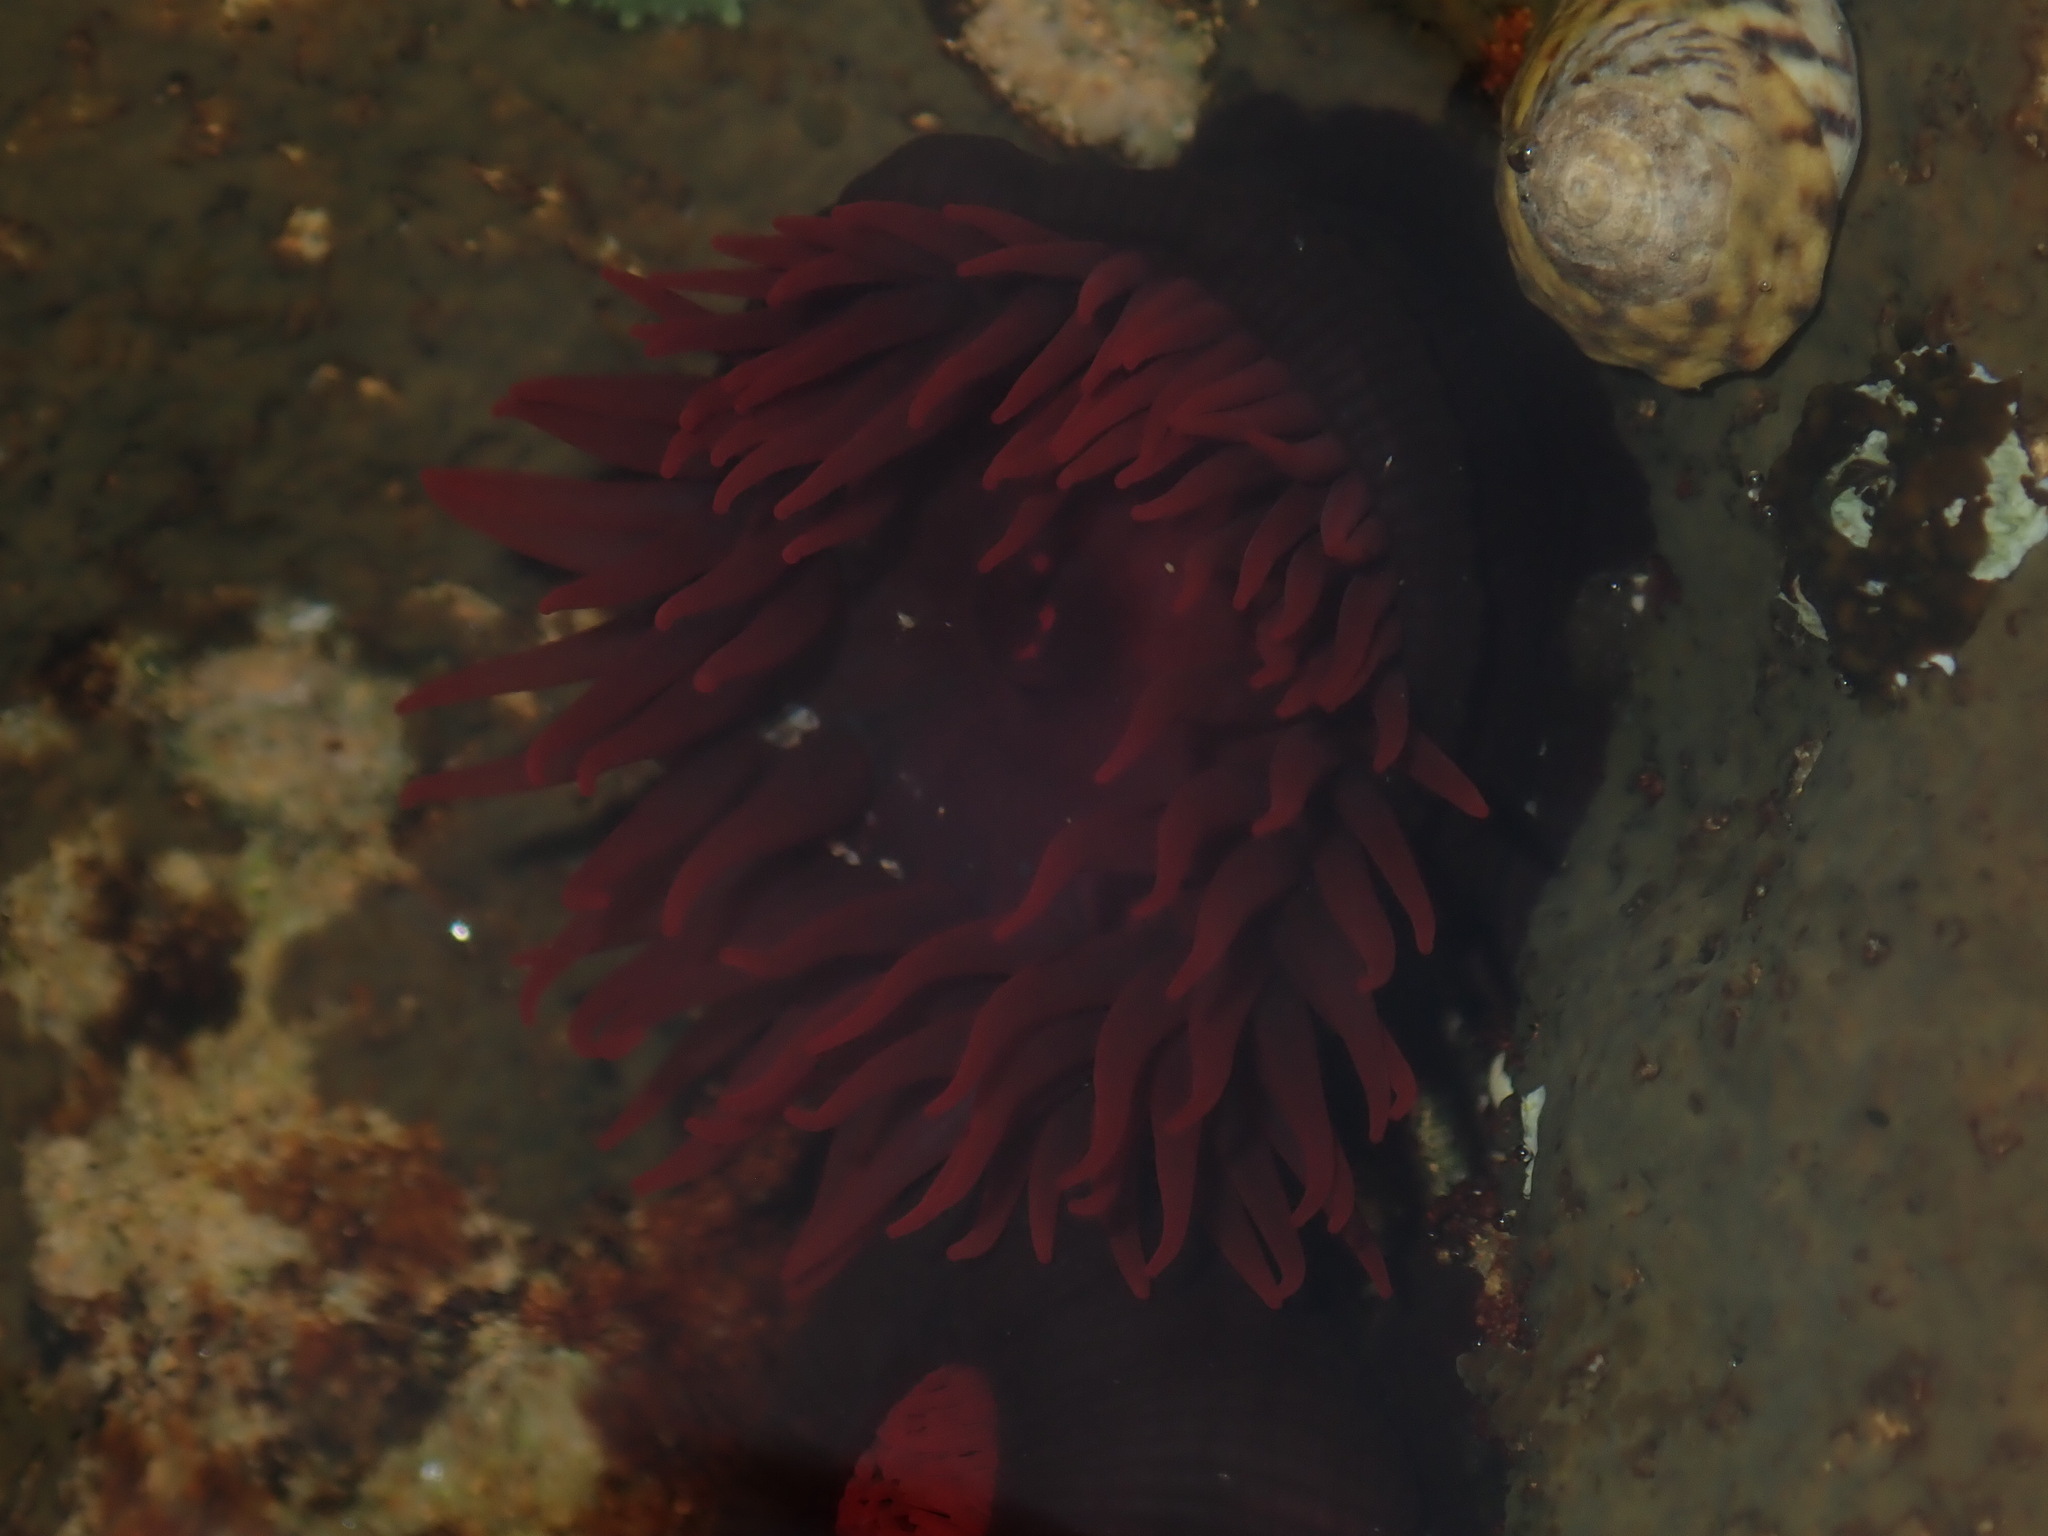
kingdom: Animalia
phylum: Cnidaria
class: Anthozoa
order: Actiniaria
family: Actiniidae
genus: Actinia
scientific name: Actinia tenebrosa
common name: Waratah anemone
